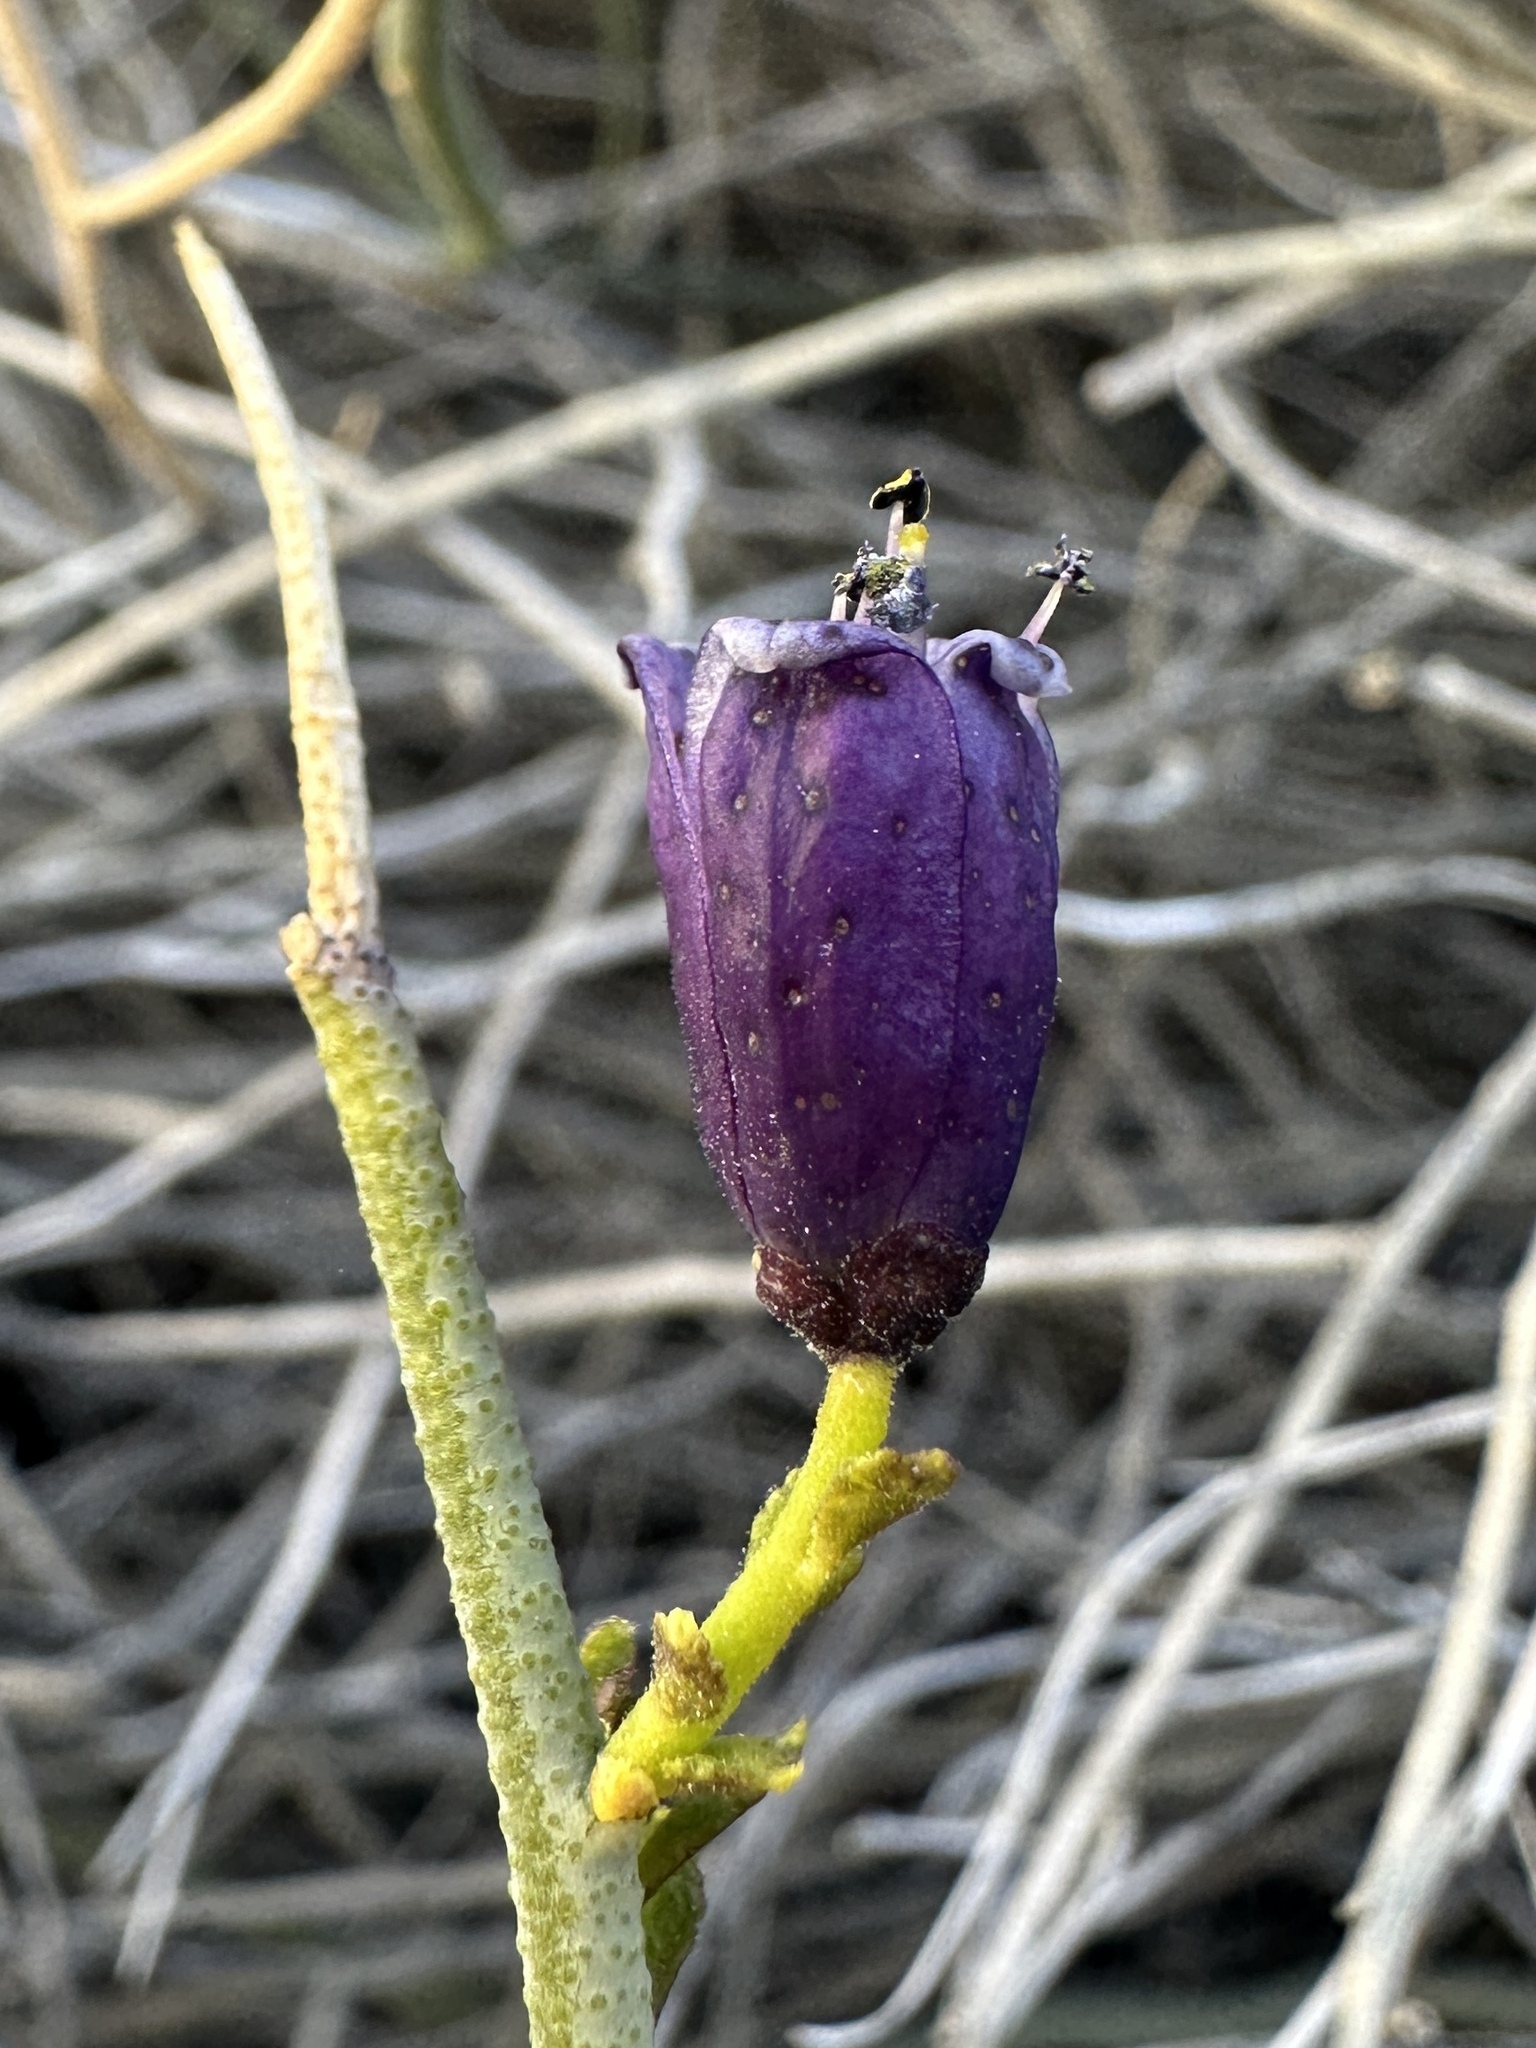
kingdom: Plantae
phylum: Tracheophyta
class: Magnoliopsida
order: Sapindales
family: Rutaceae
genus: Thamnosma
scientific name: Thamnosma montana
